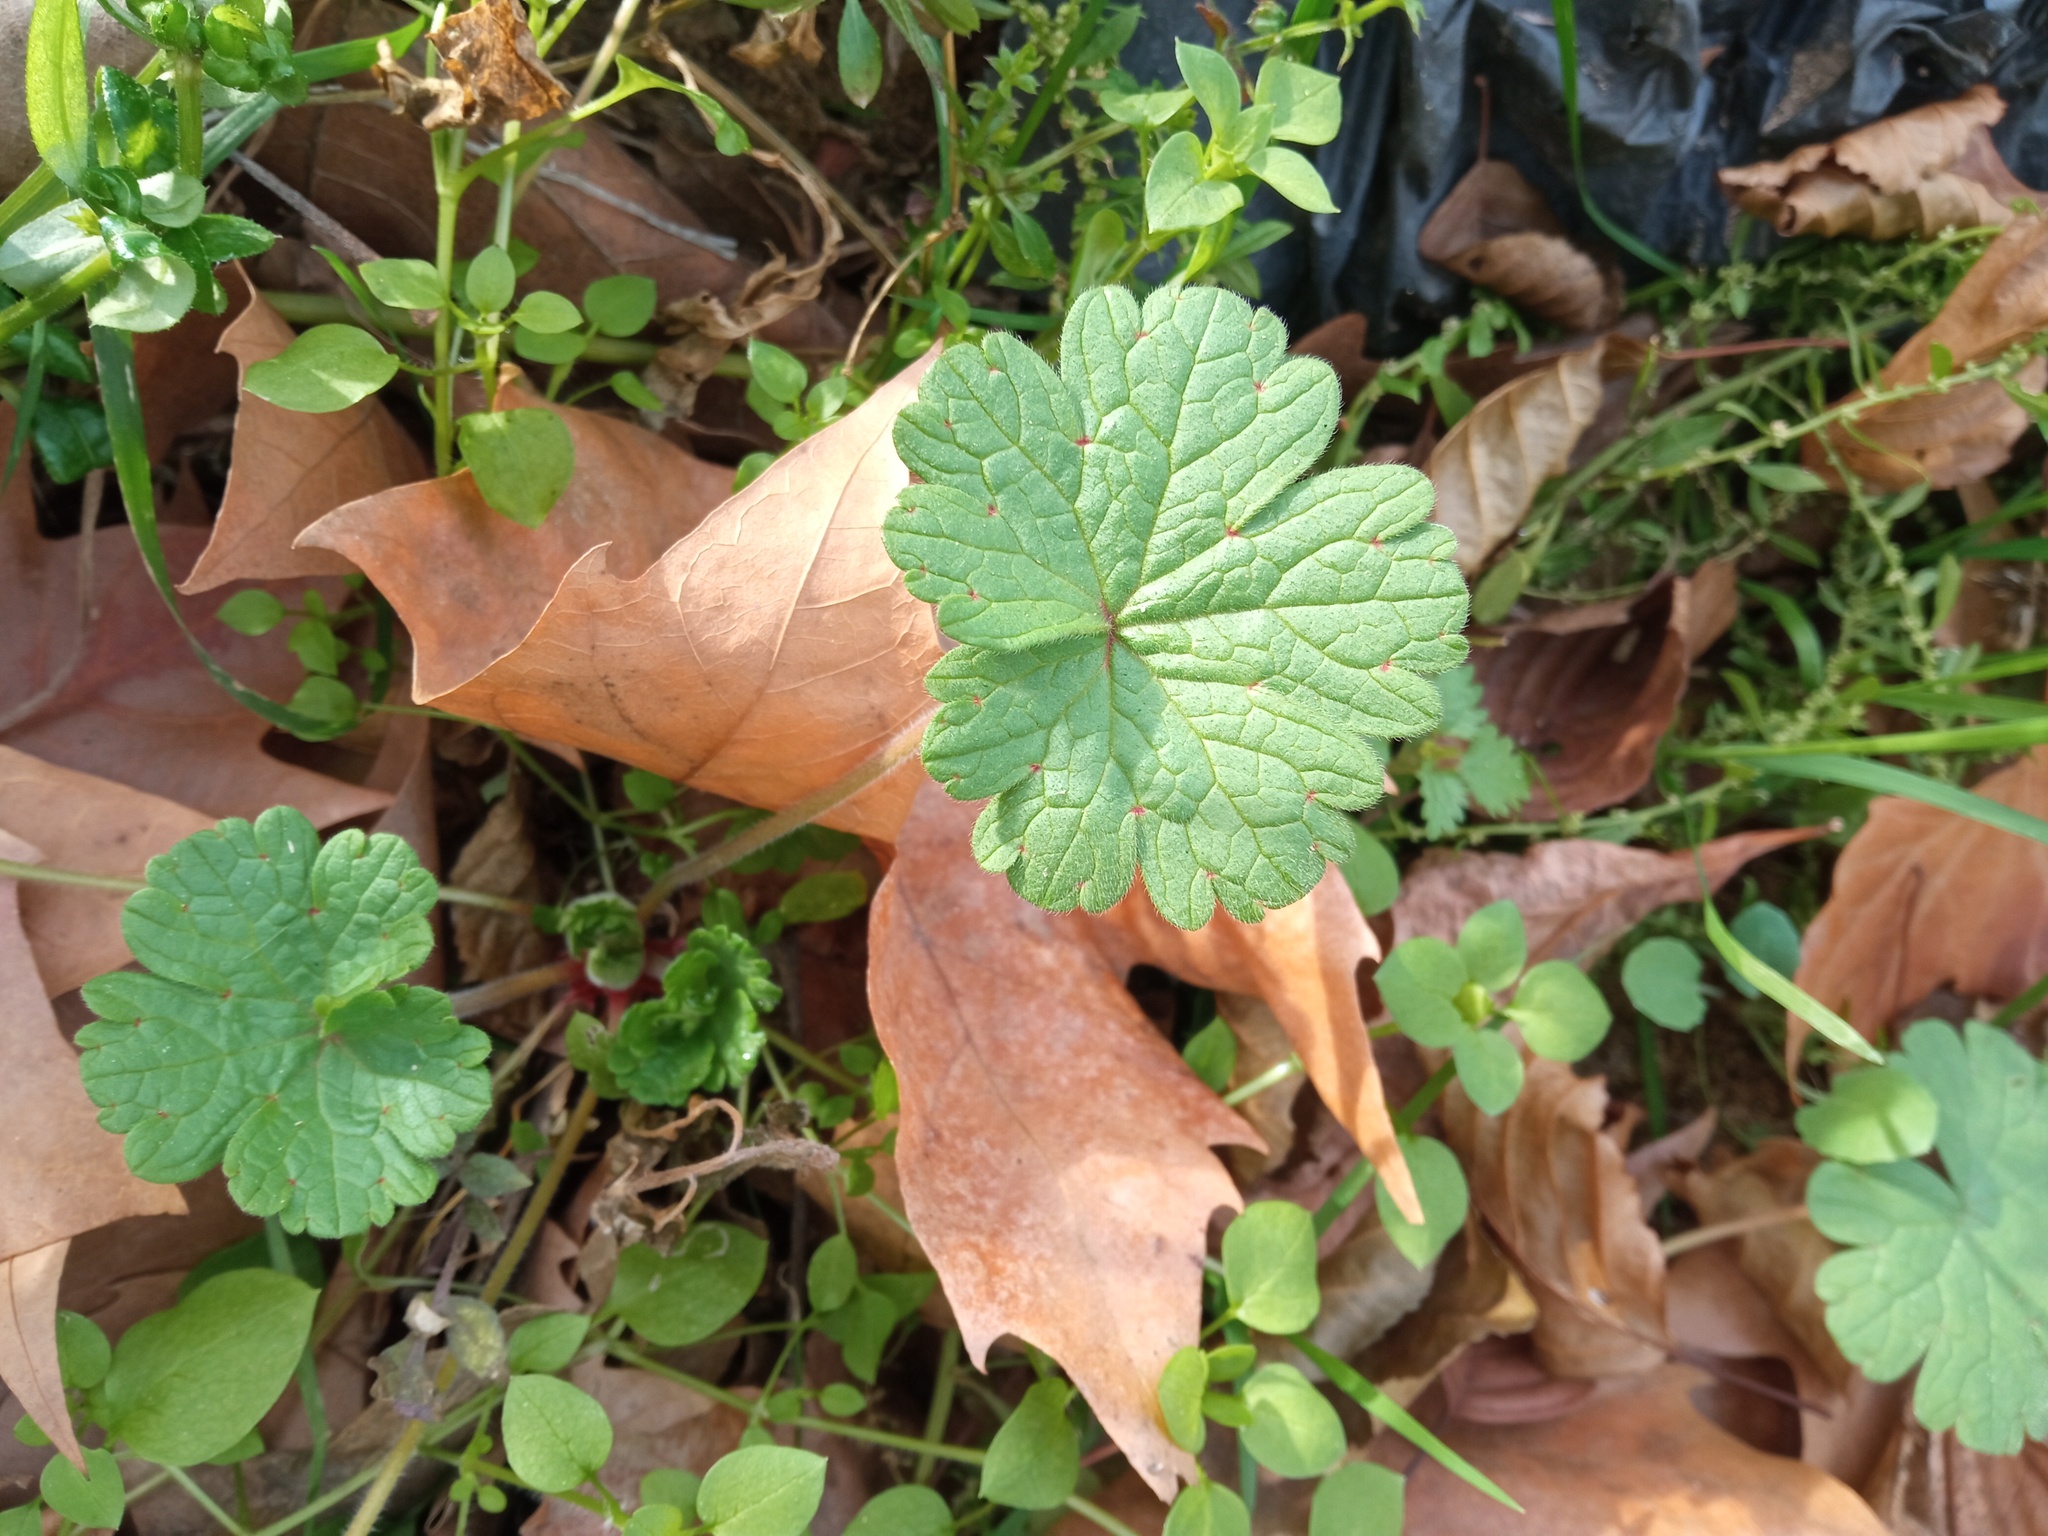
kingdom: Plantae
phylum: Tracheophyta
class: Magnoliopsida
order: Geraniales
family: Geraniaceae
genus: Geranium
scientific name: Geranium rotundifolium
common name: Round-leaved crane's-bill
